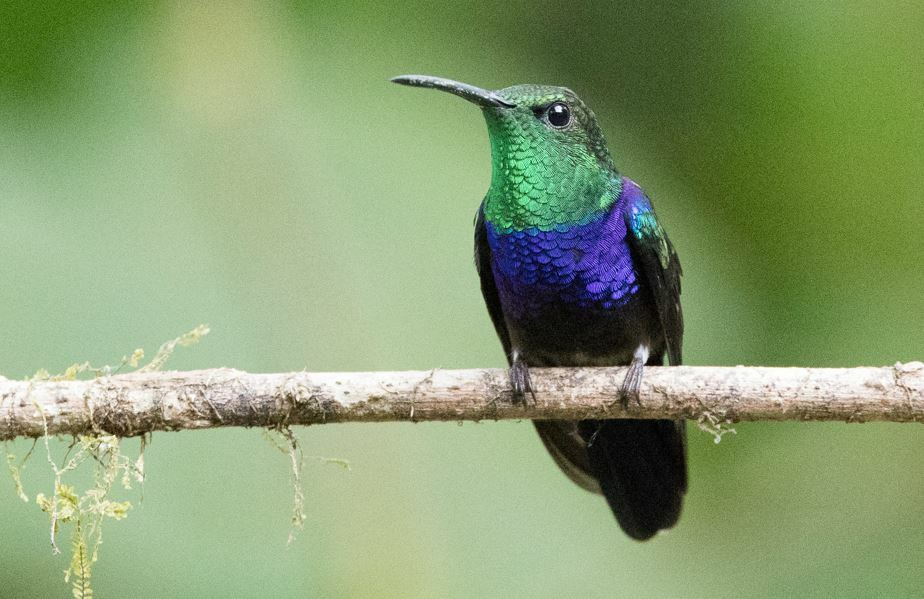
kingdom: Animalia
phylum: Chordata
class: Aves
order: Apodiformes
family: Trochilidae
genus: Thalurania
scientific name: Thalurania furcata
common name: Fork-tailed woodnymph
